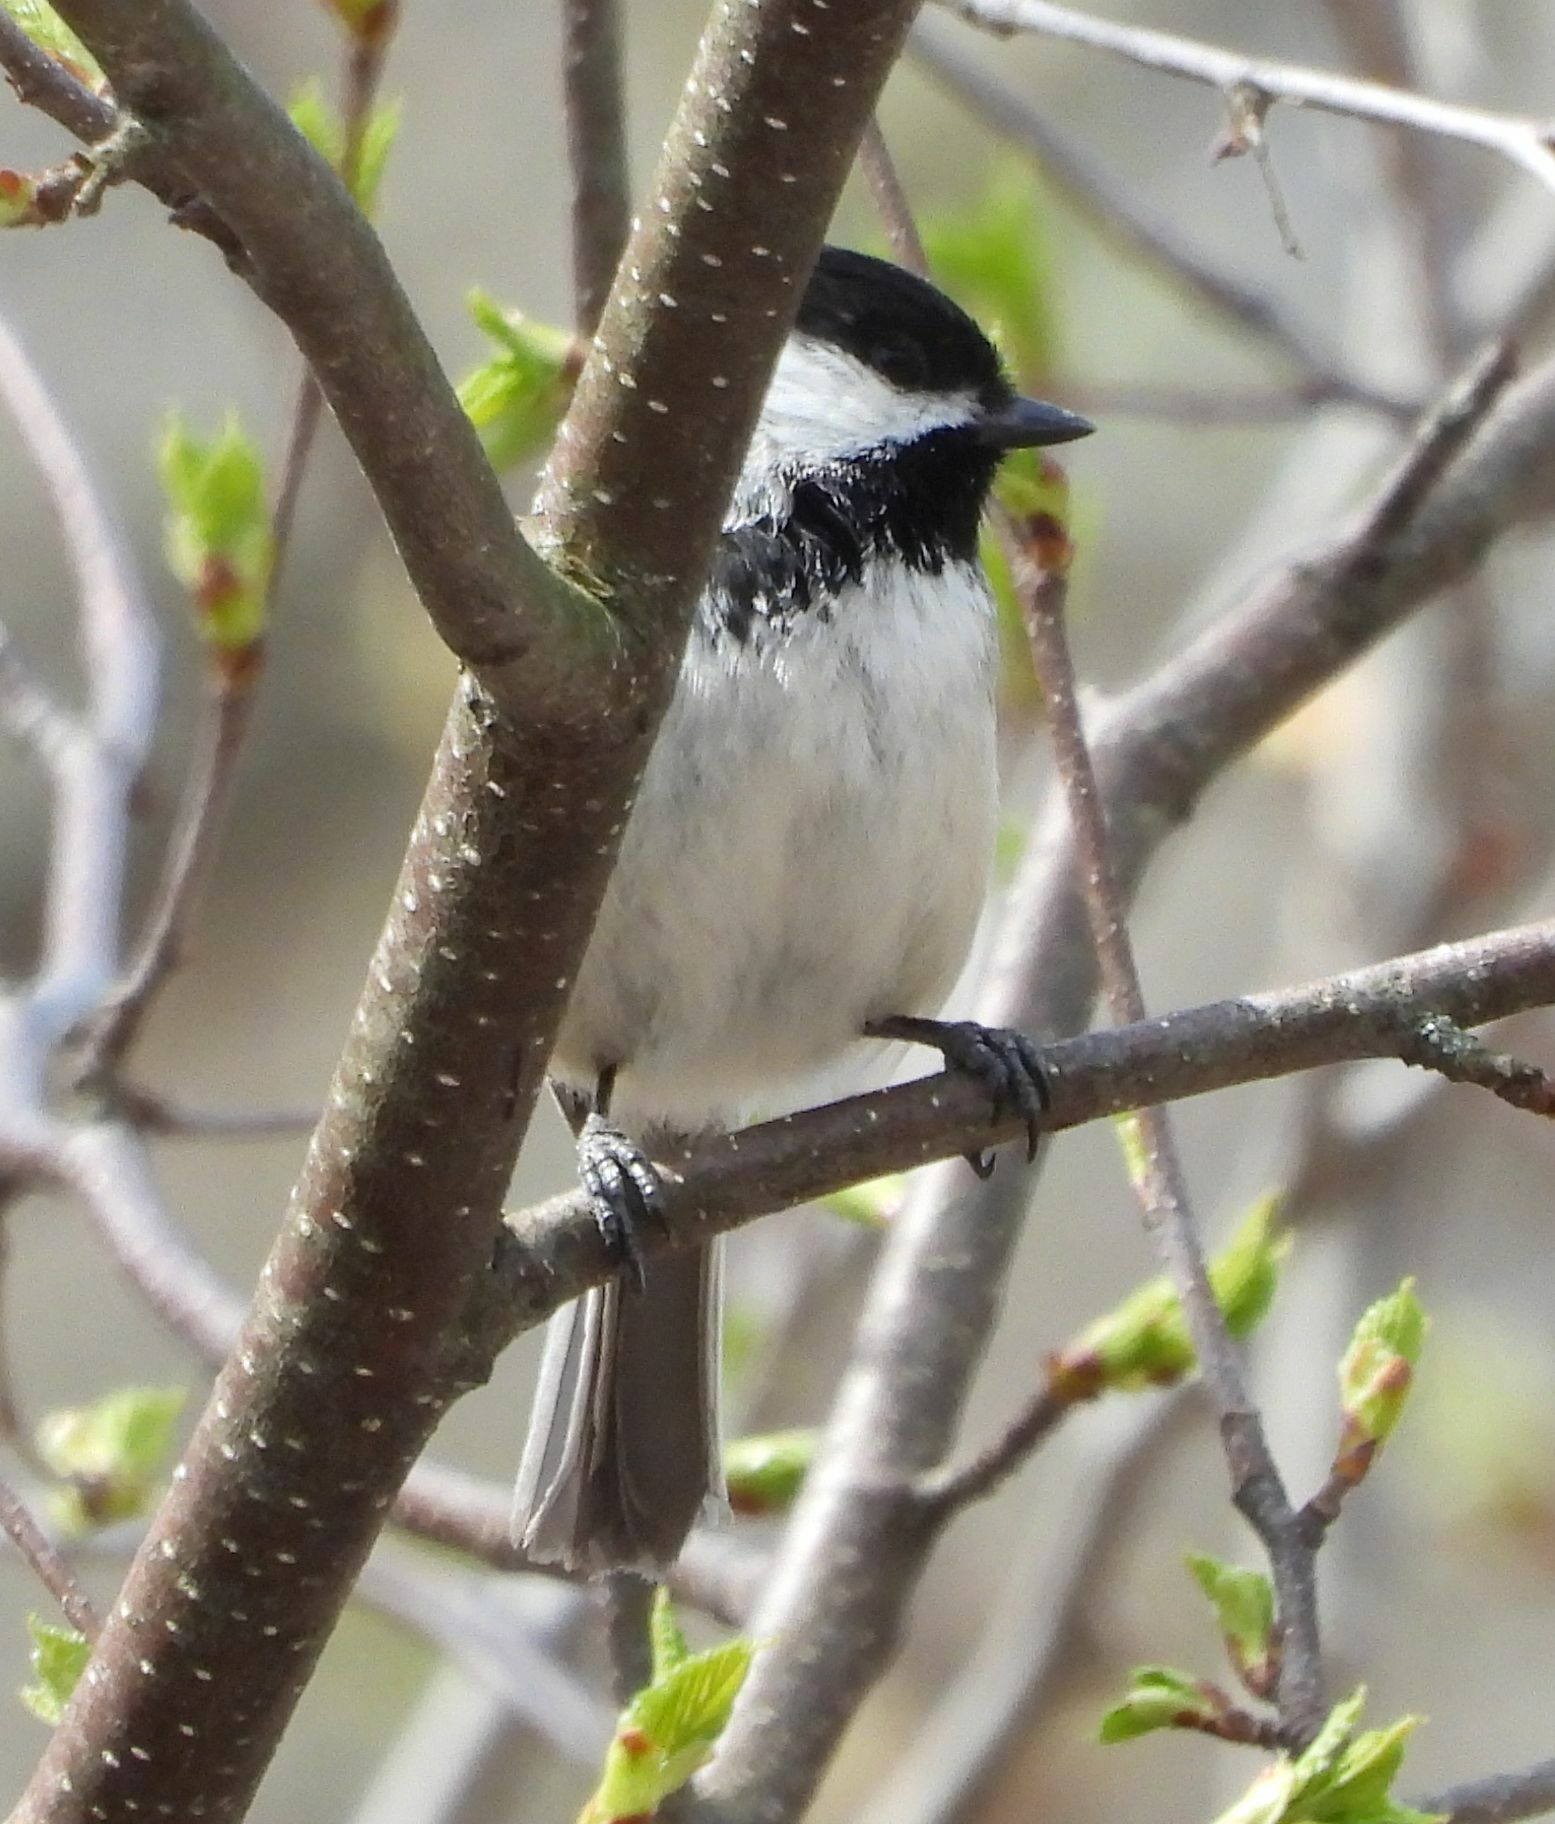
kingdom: Animalia
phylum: Chordata
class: Aves
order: Passeriformes
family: Paridae
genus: Poecile
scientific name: Poecile atricapillus
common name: Black-capped chickadee
